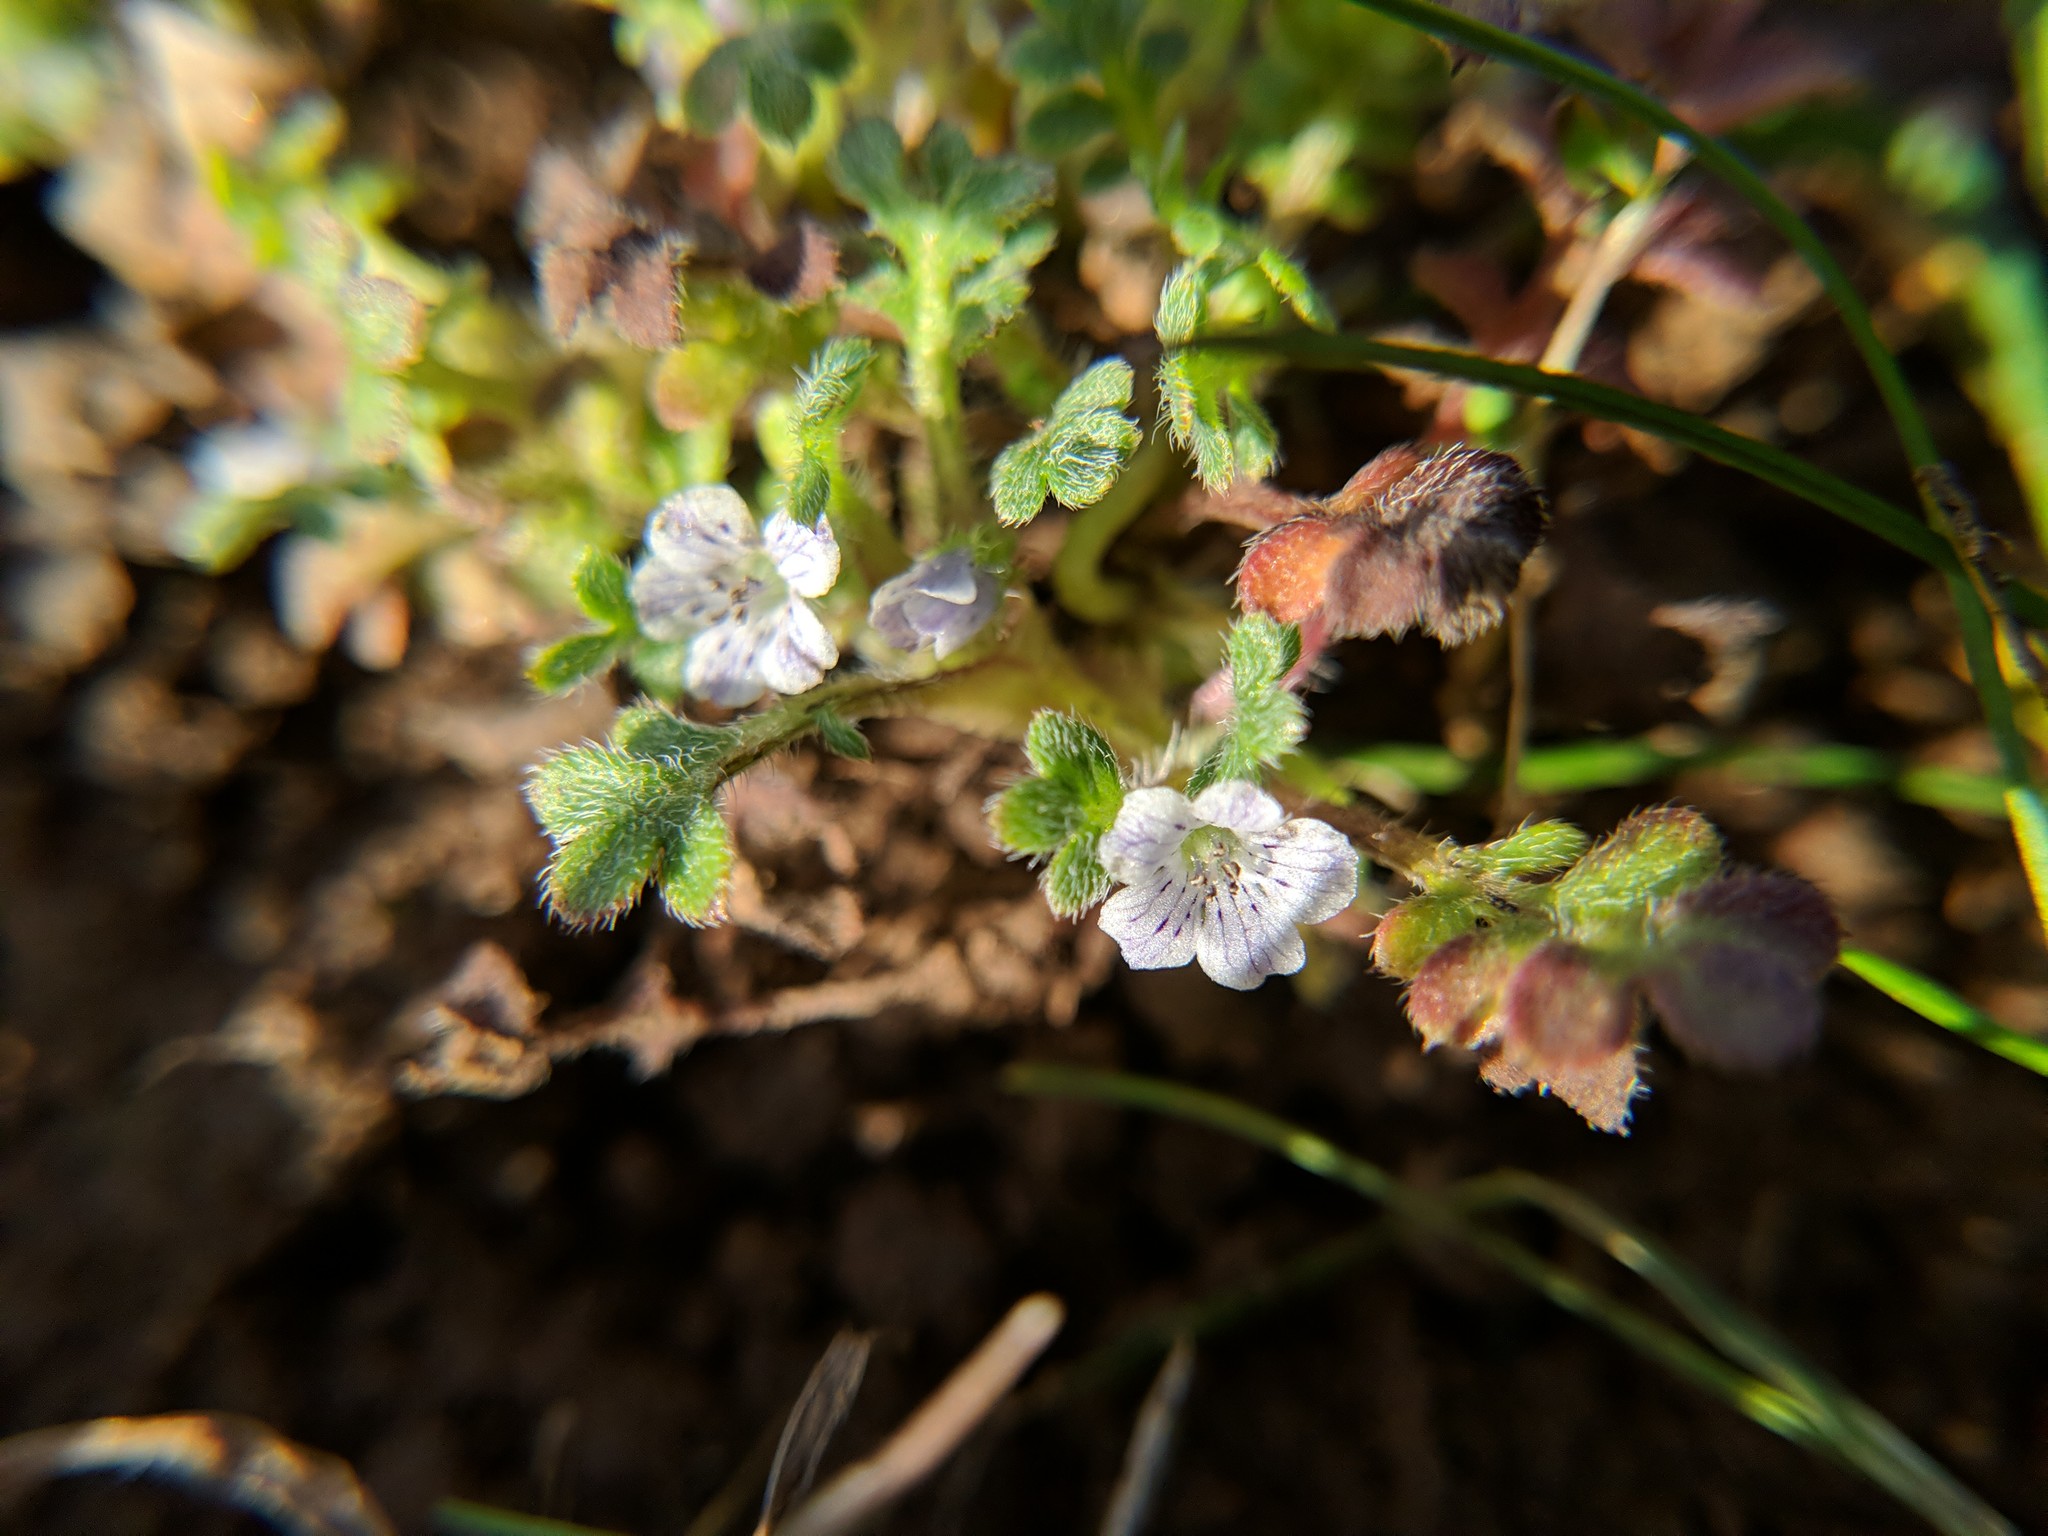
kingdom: Plantae
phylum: Tracheophyta
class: Magnoliopsida
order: Boraginales
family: Hydrophyllaceae
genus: Nemophila
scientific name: Nemophila pedunculata
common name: Little-foot baby-blue-eyes
